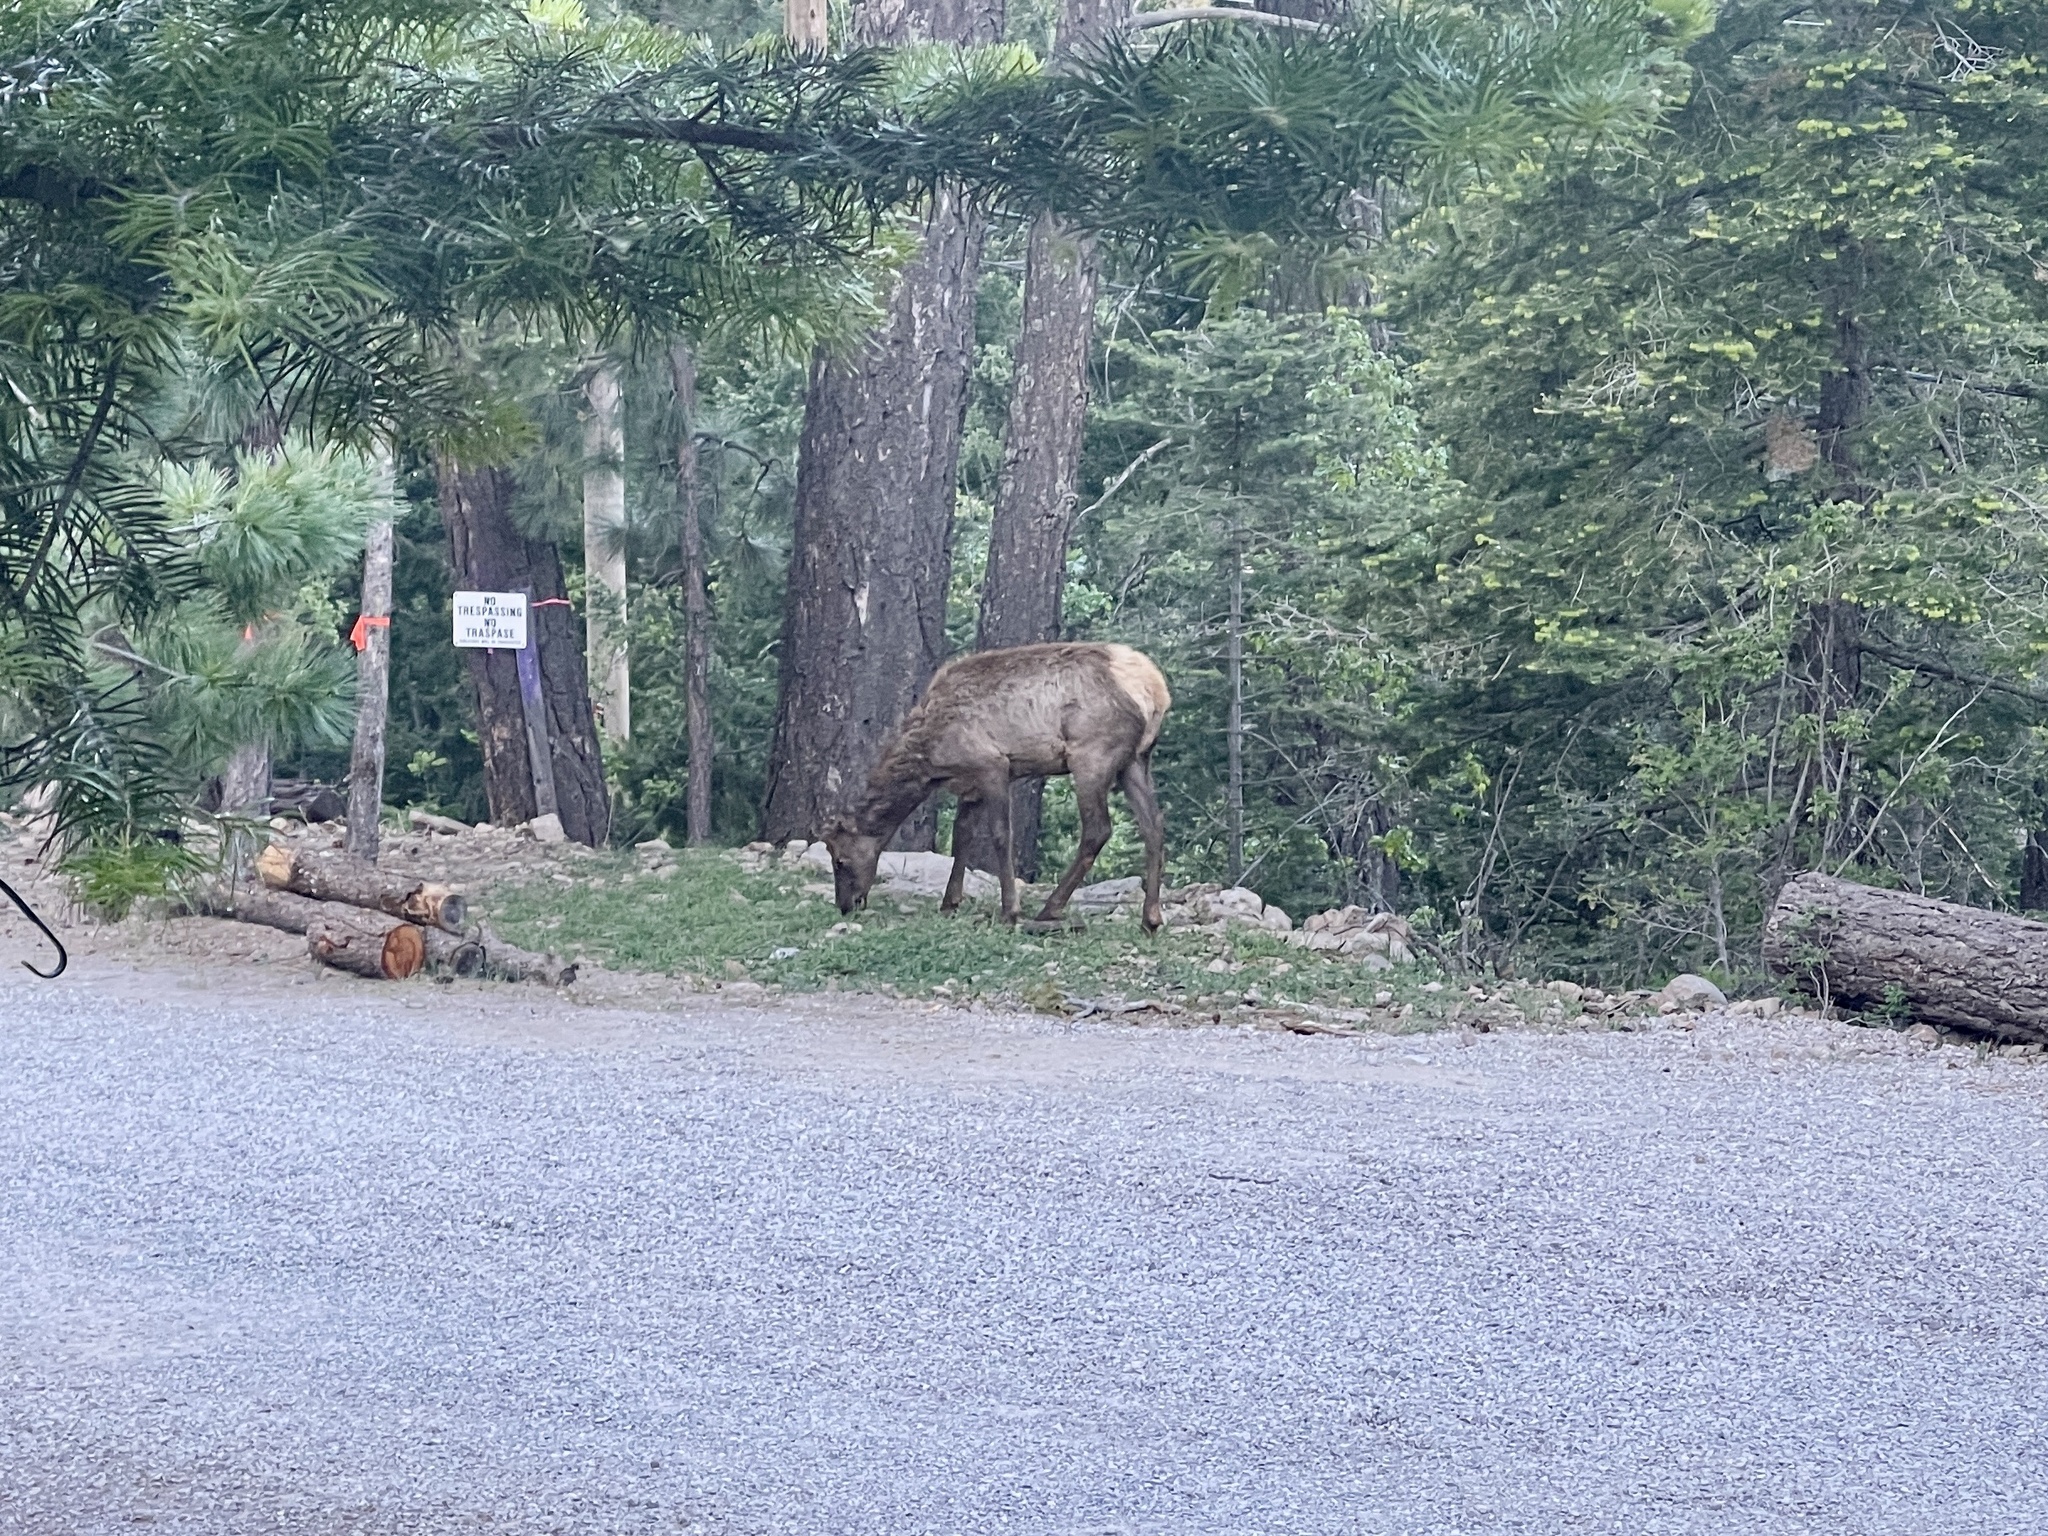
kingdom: Animalia
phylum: Chordata
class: Mammalia
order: Artiodactyla
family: Cervidae
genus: Cervus
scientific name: Cervus elaphus
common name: Red deer
